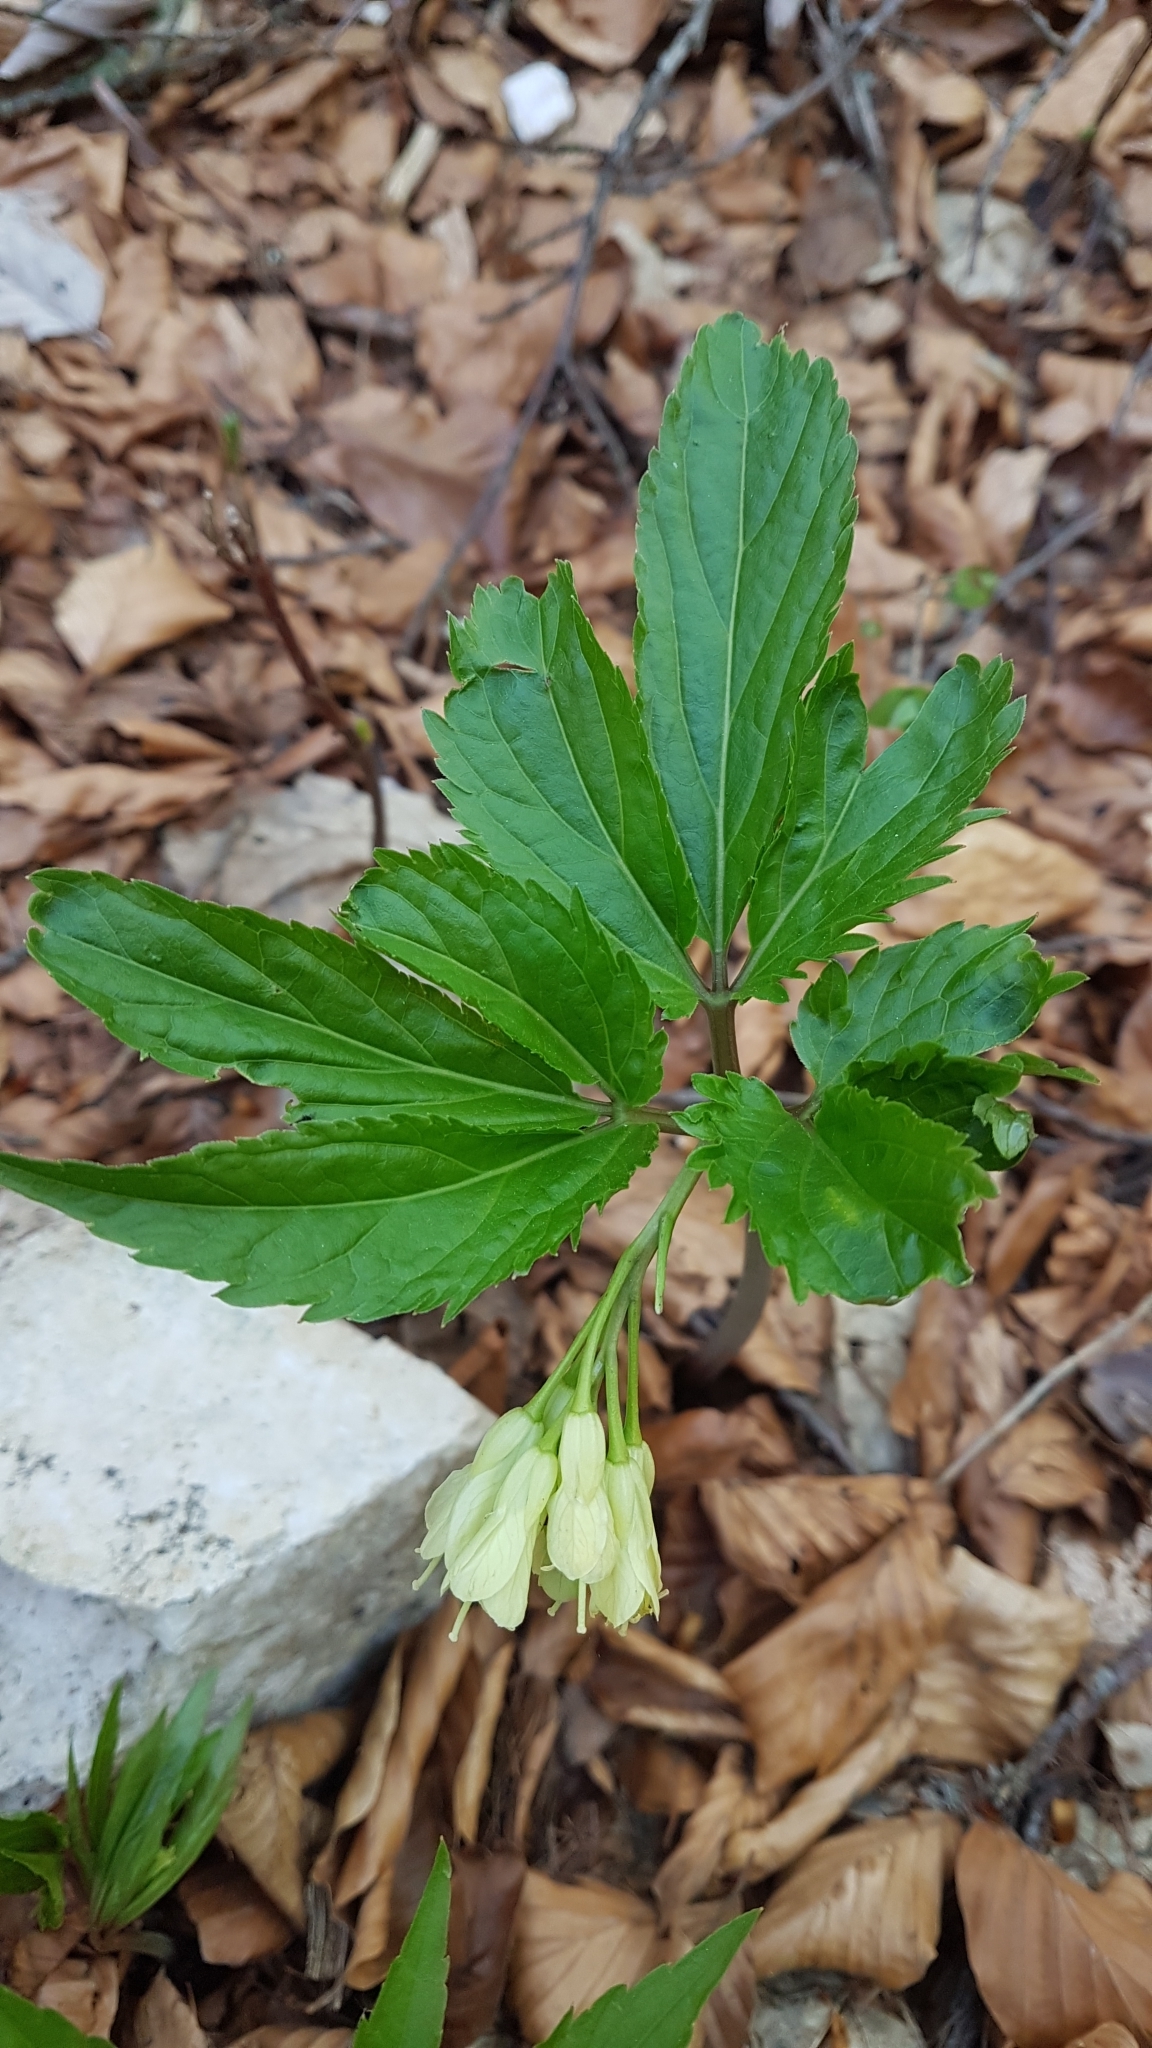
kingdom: Plantae
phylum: Tracheophyta
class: Magnoliopsida
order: Brassicales
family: Brassicaceae
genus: Cardamine
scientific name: Cardamine enneaphyllos
